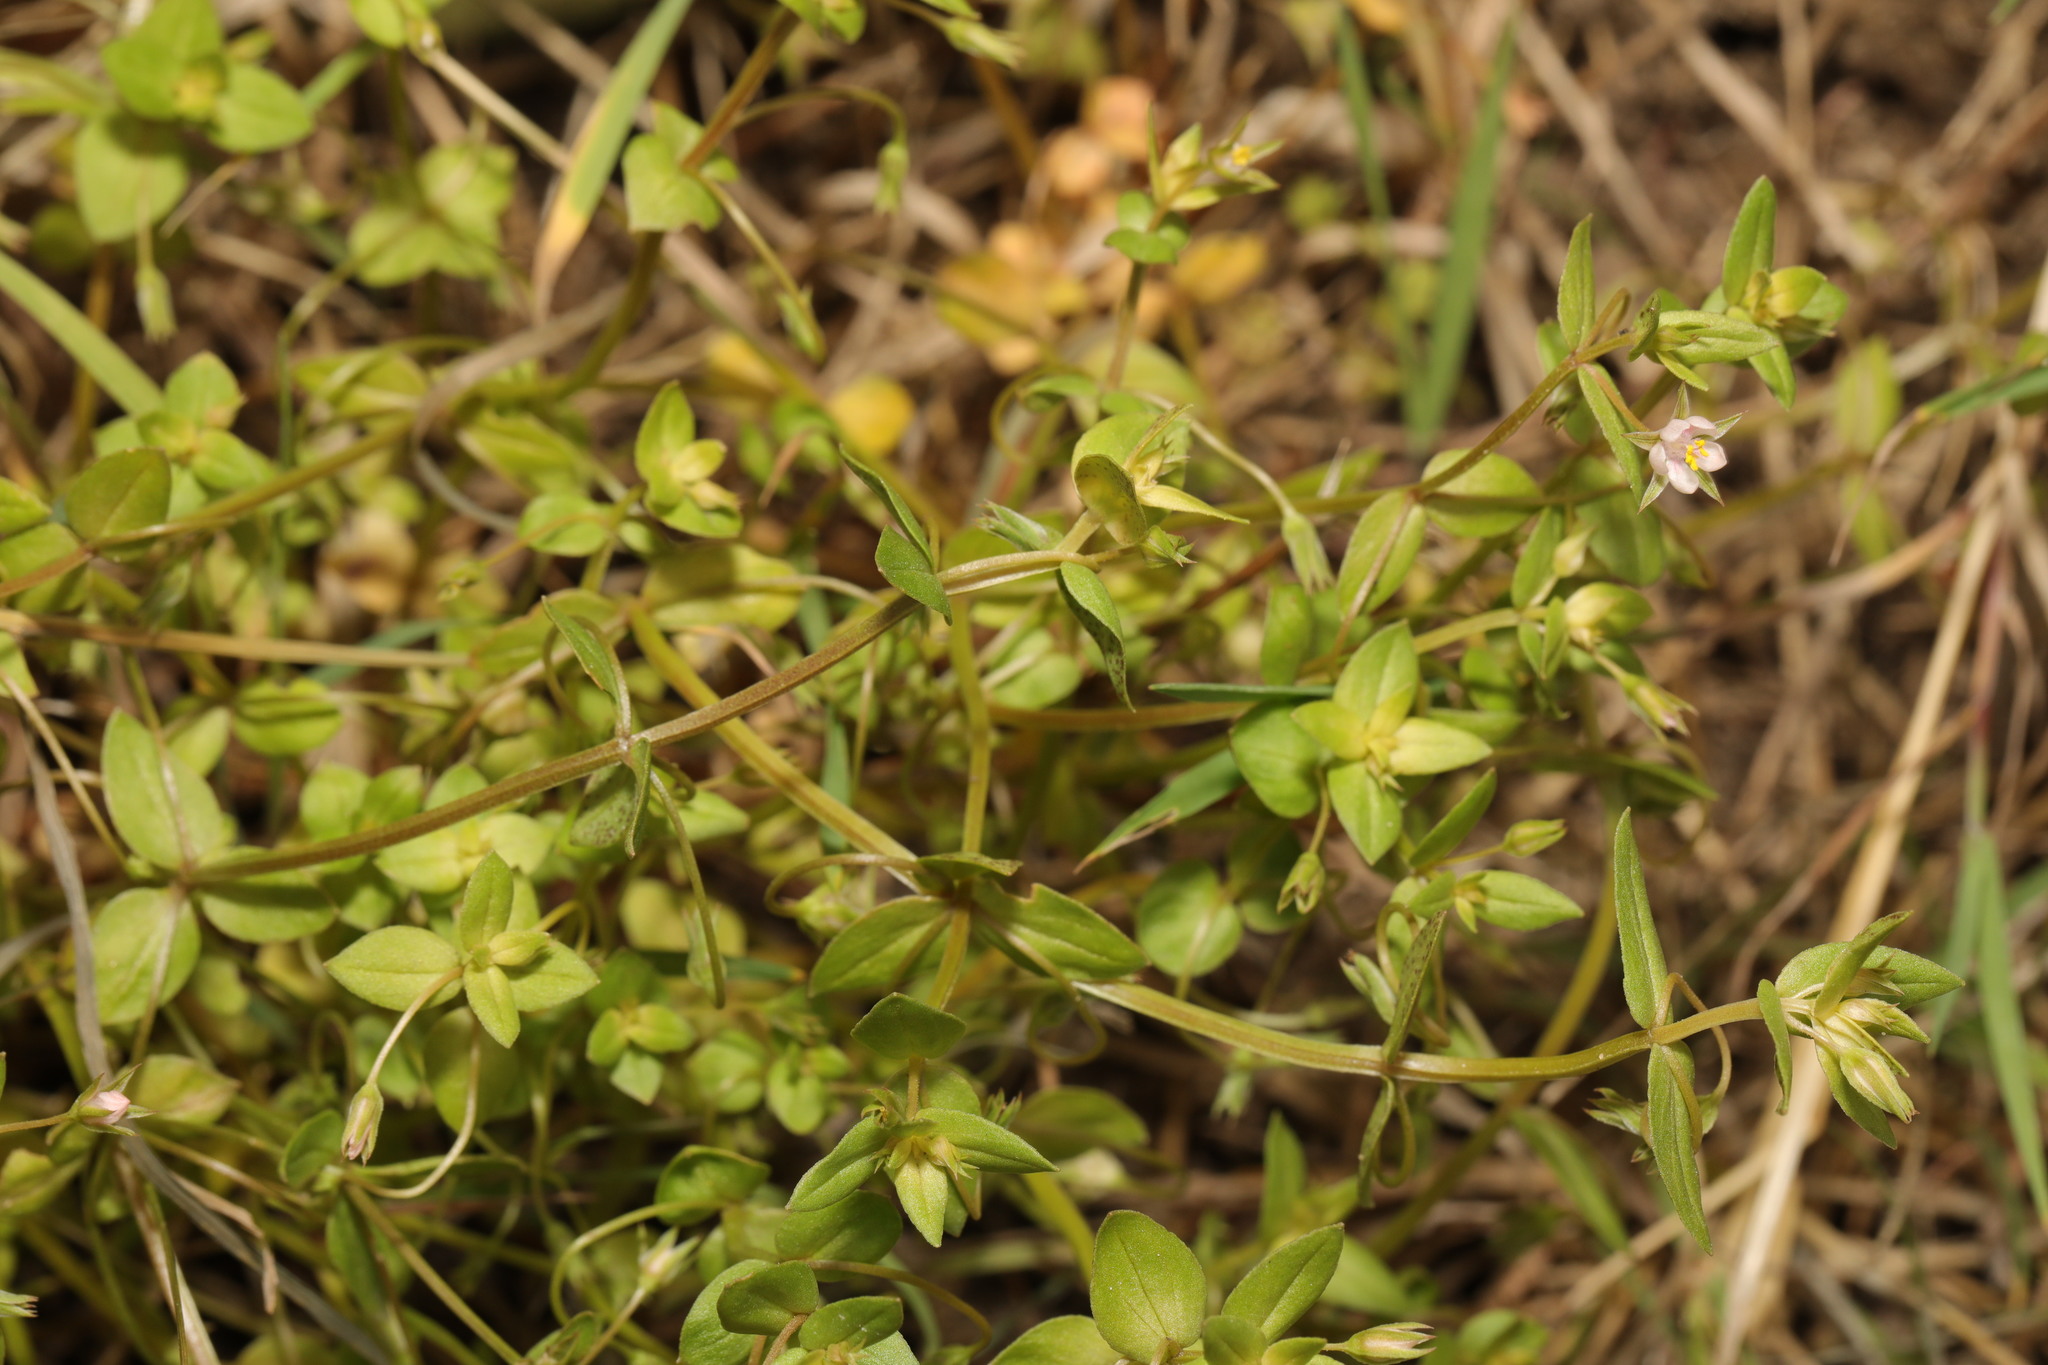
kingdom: Plantae
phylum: Tracheophyta
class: Magnoliopsida
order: Ericales
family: Primulaceae
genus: Lysimachia
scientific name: Lysimachia arvensis
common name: Scarlet pimpernel
